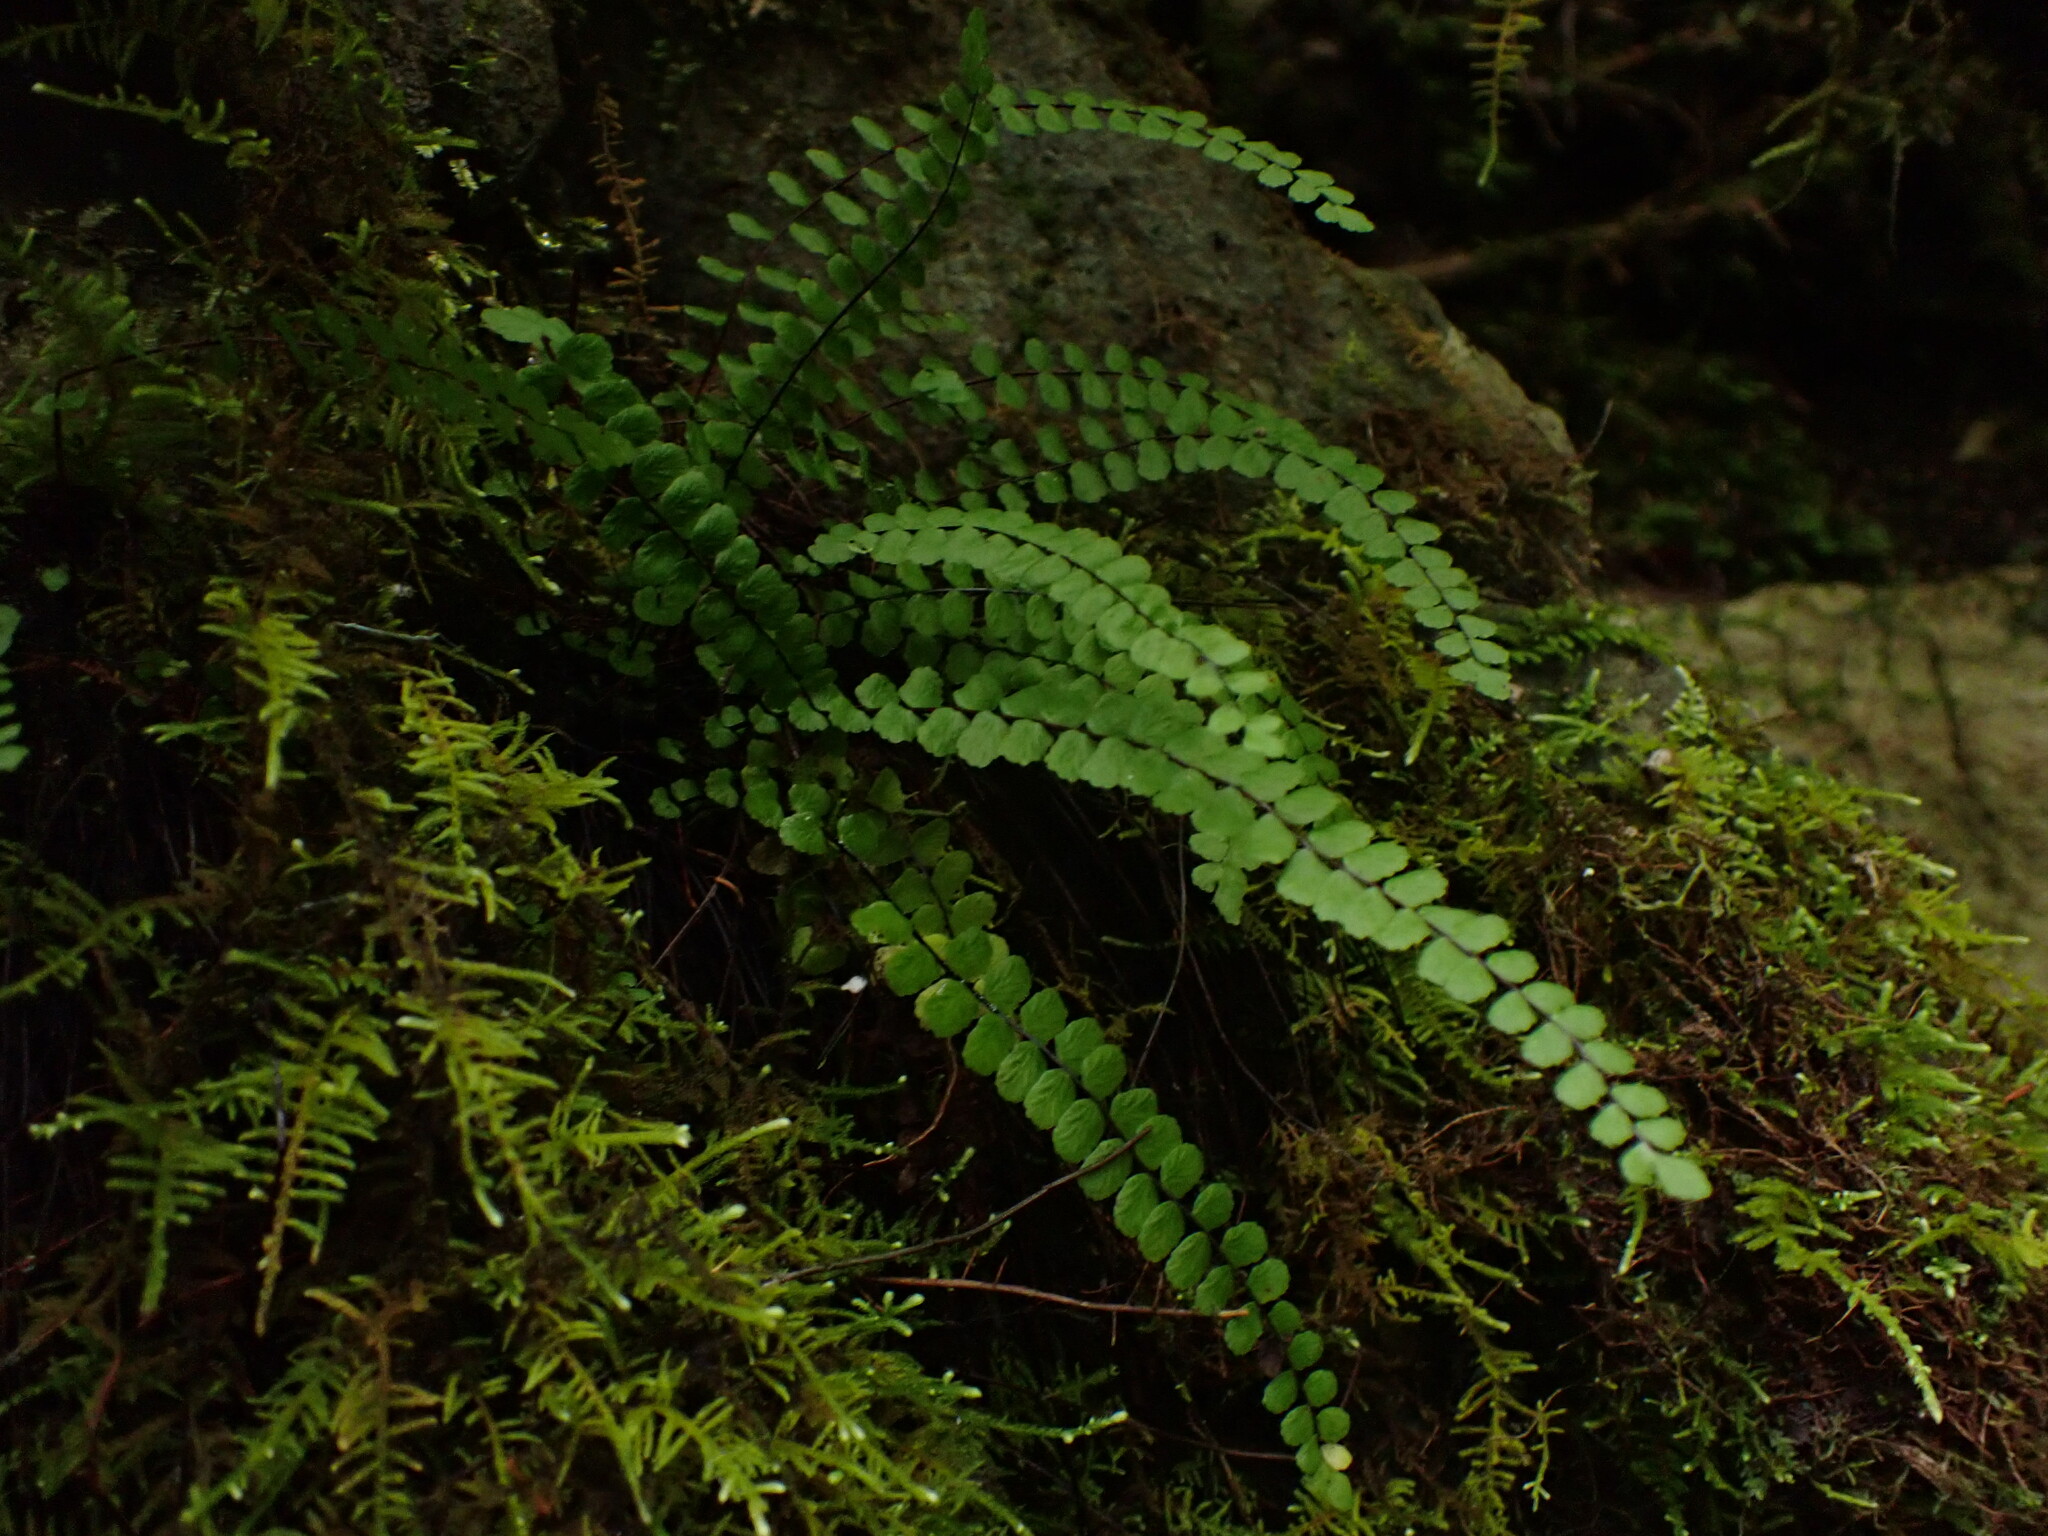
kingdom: Plantae
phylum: Tracheophyta
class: Polypodiopsida
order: Polypodiales
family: Aspleniaceae
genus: Asplenium
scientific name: Asplenium trichomanes
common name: Maidenhair spleenwort
